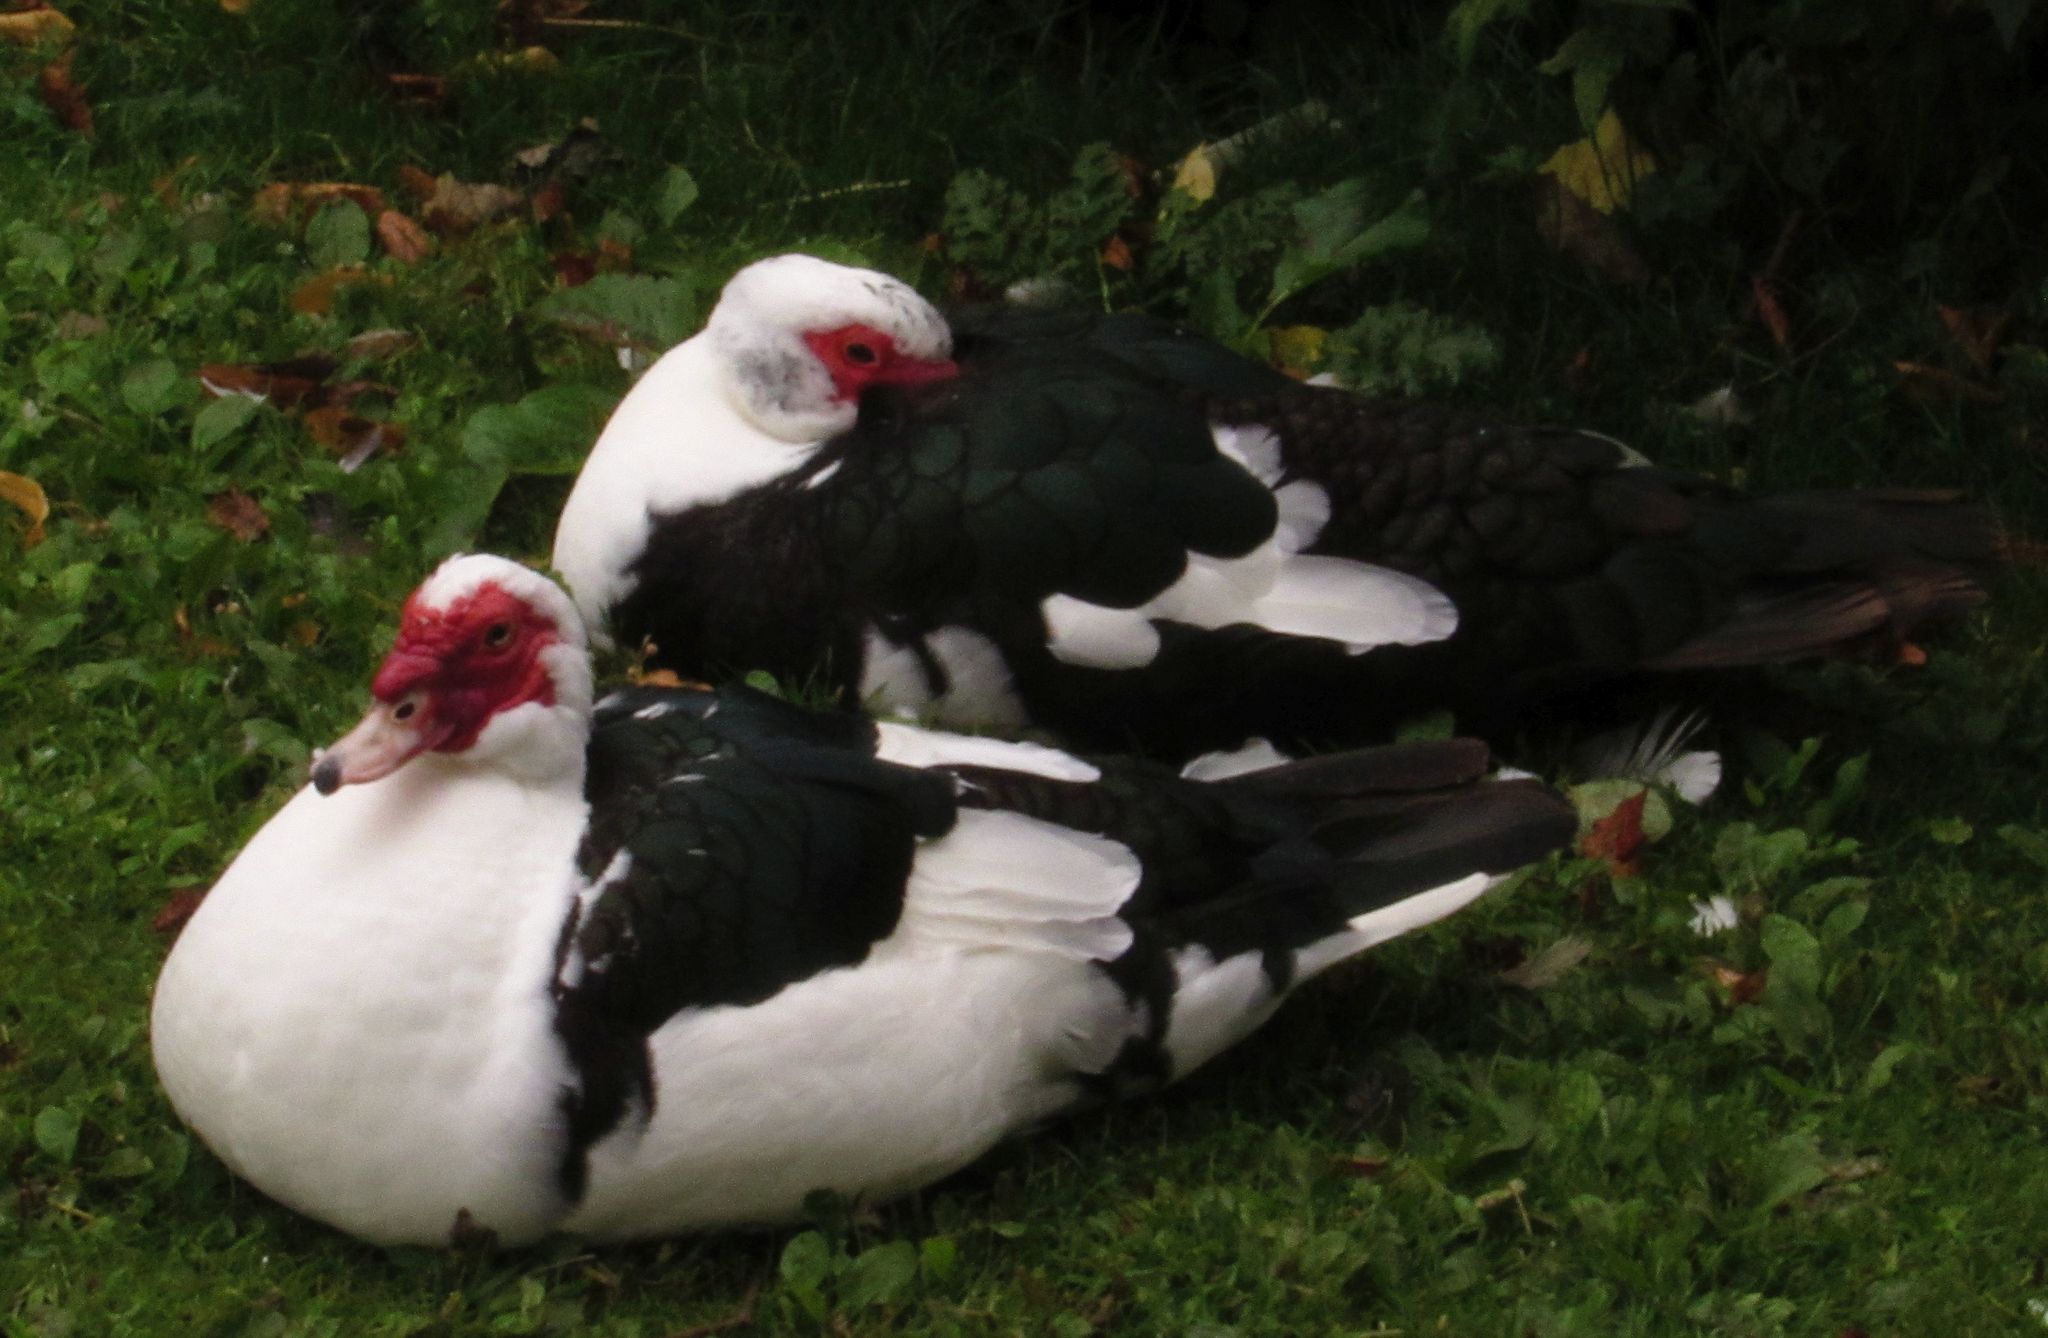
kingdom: Animalia
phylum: Chordata
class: Aves
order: Anseriformes
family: Anatidae
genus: Cairina
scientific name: Cairina moschata
